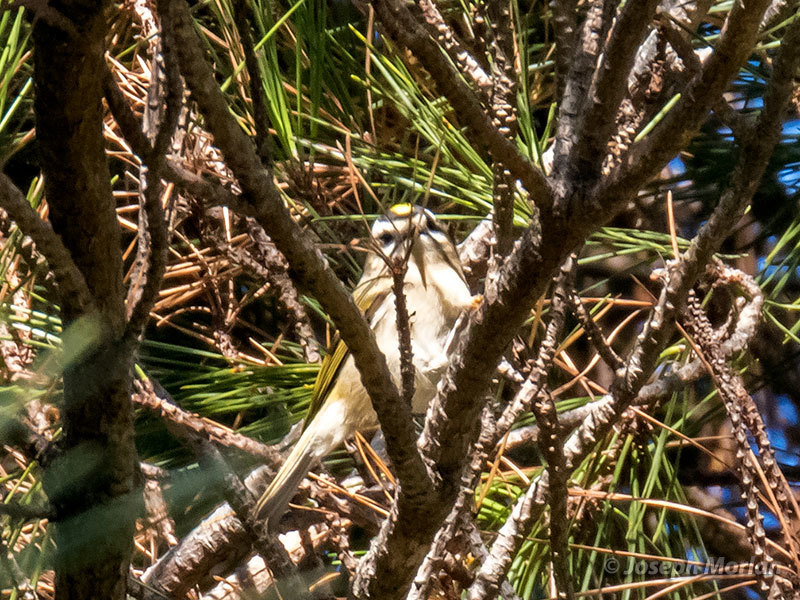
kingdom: Animalia
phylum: Chordata
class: Aves
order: Passeriformes
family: Regulidae
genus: Regulus
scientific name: Regulus satrapa
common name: Golden-crowned kinglet
